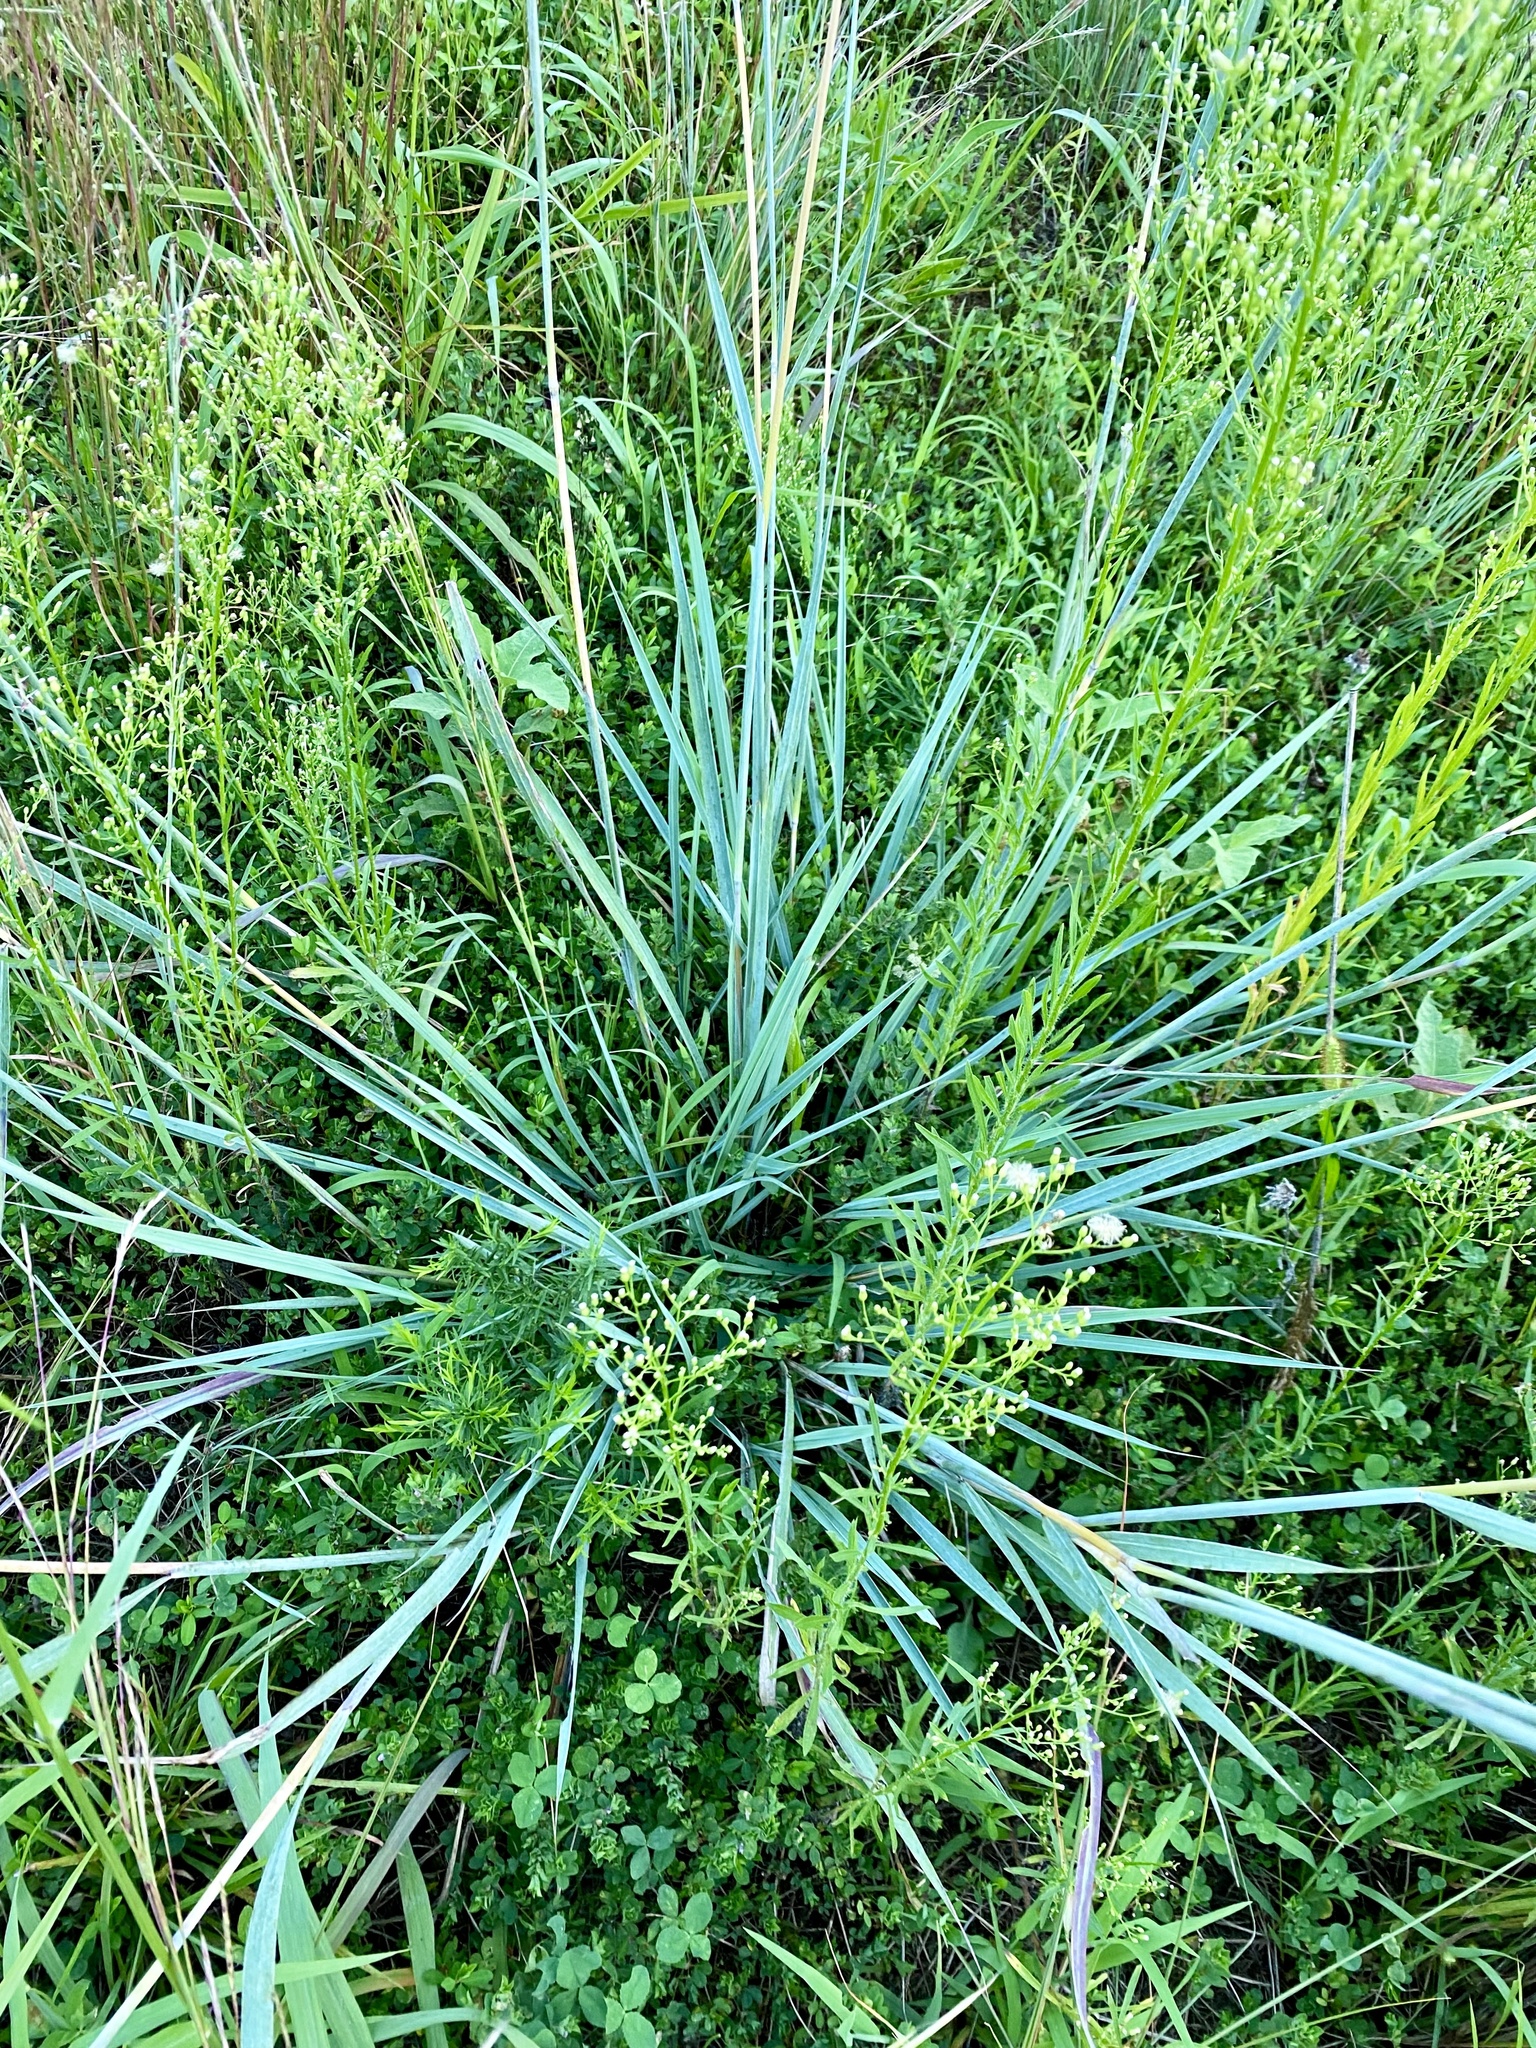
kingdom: Plantae
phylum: Tracheophyta
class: Liliopsida
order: Poales
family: Poaceae
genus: Sorghastrum
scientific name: Sorghastrum nutans
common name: Indian grass
